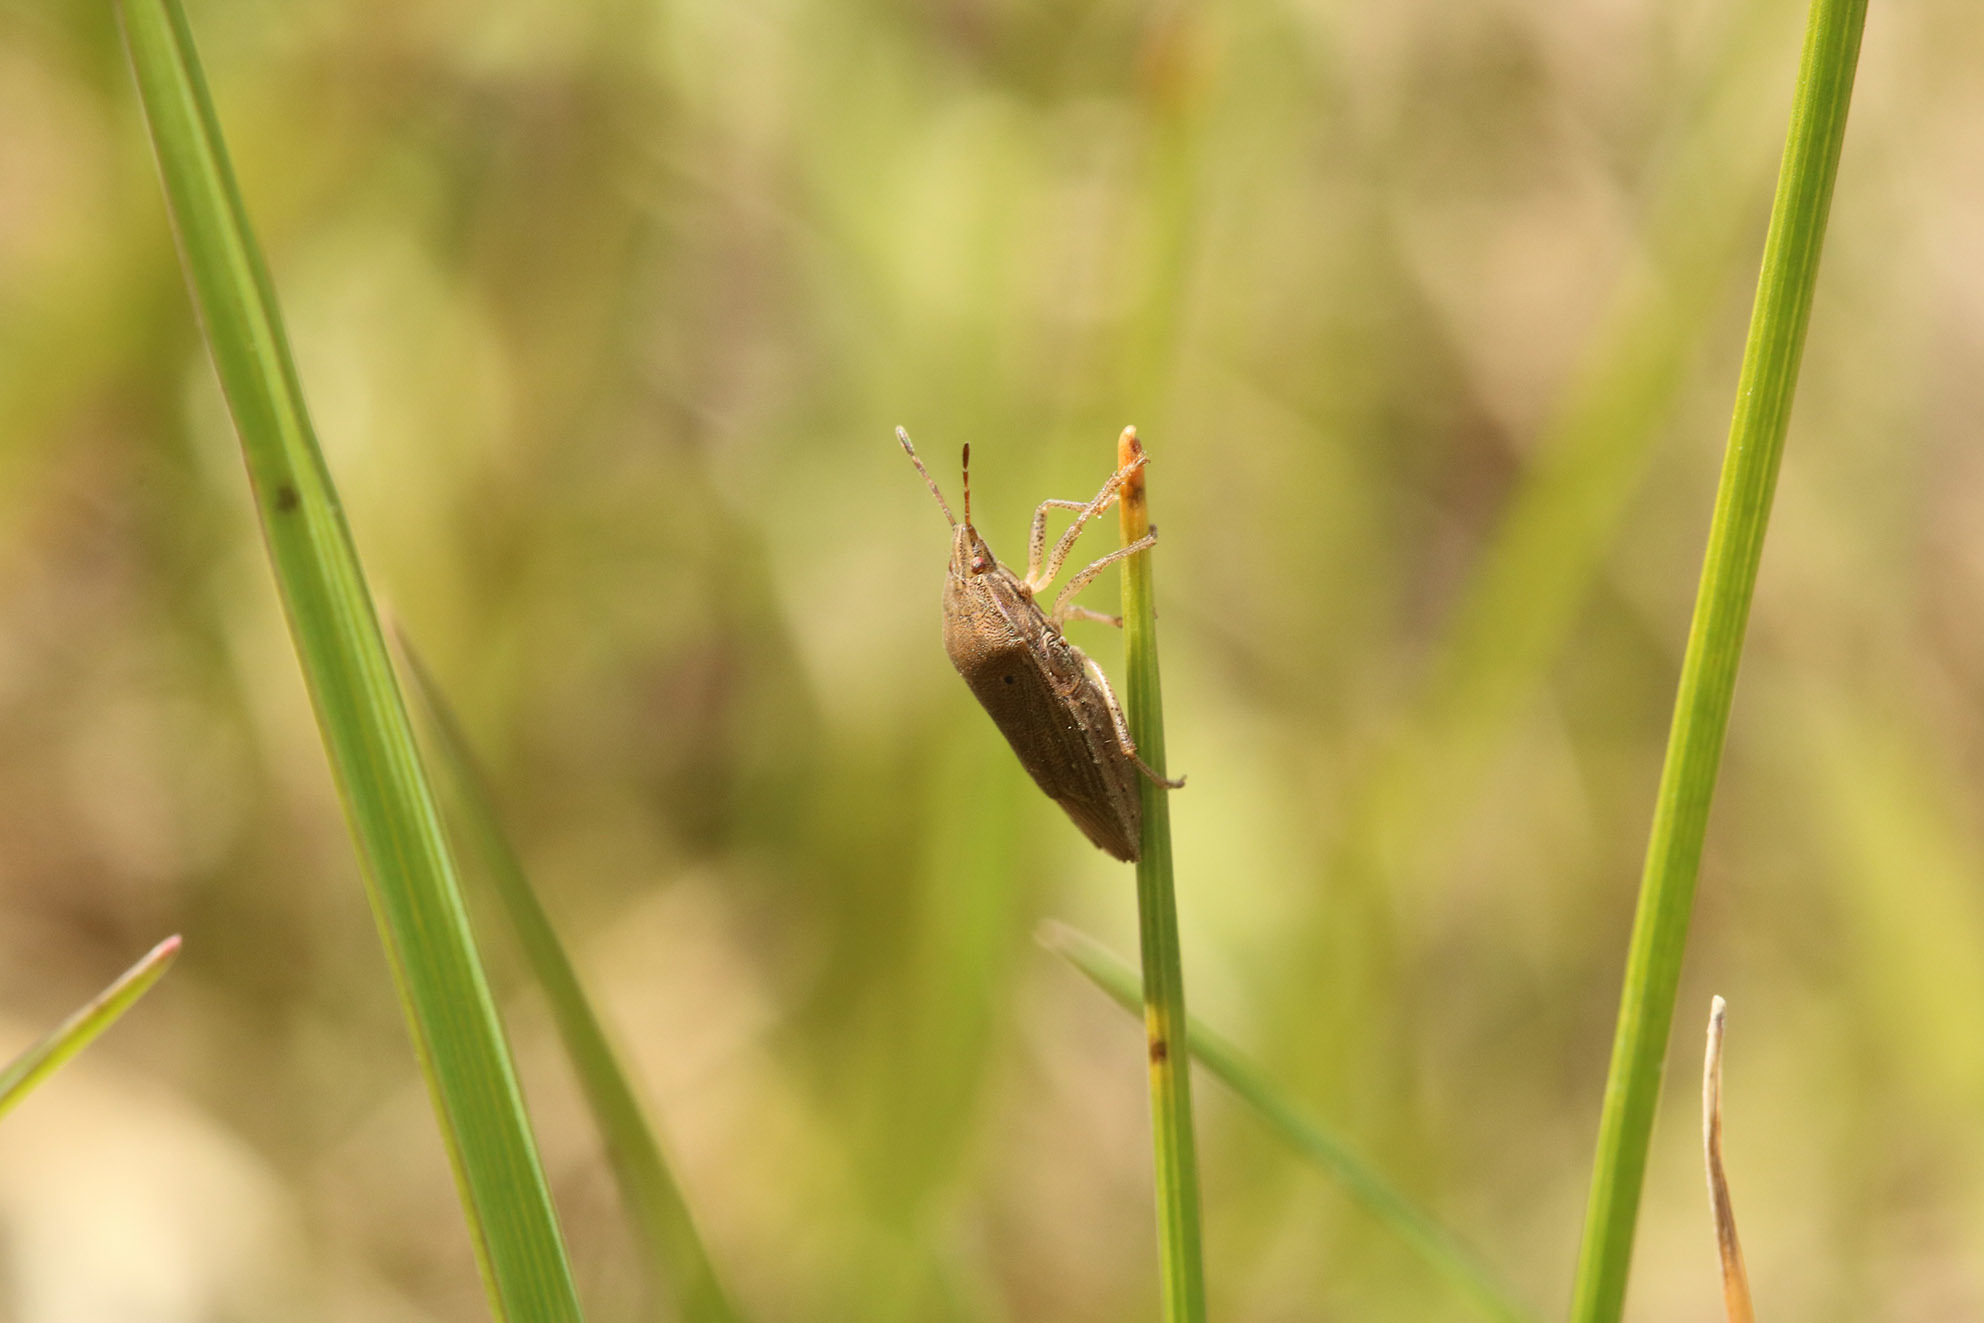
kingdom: Animalia
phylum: Arthropoda
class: Insecta
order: Hemiptera
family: Lophopidae
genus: Oenopiella
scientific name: Oenopiella punctaria
